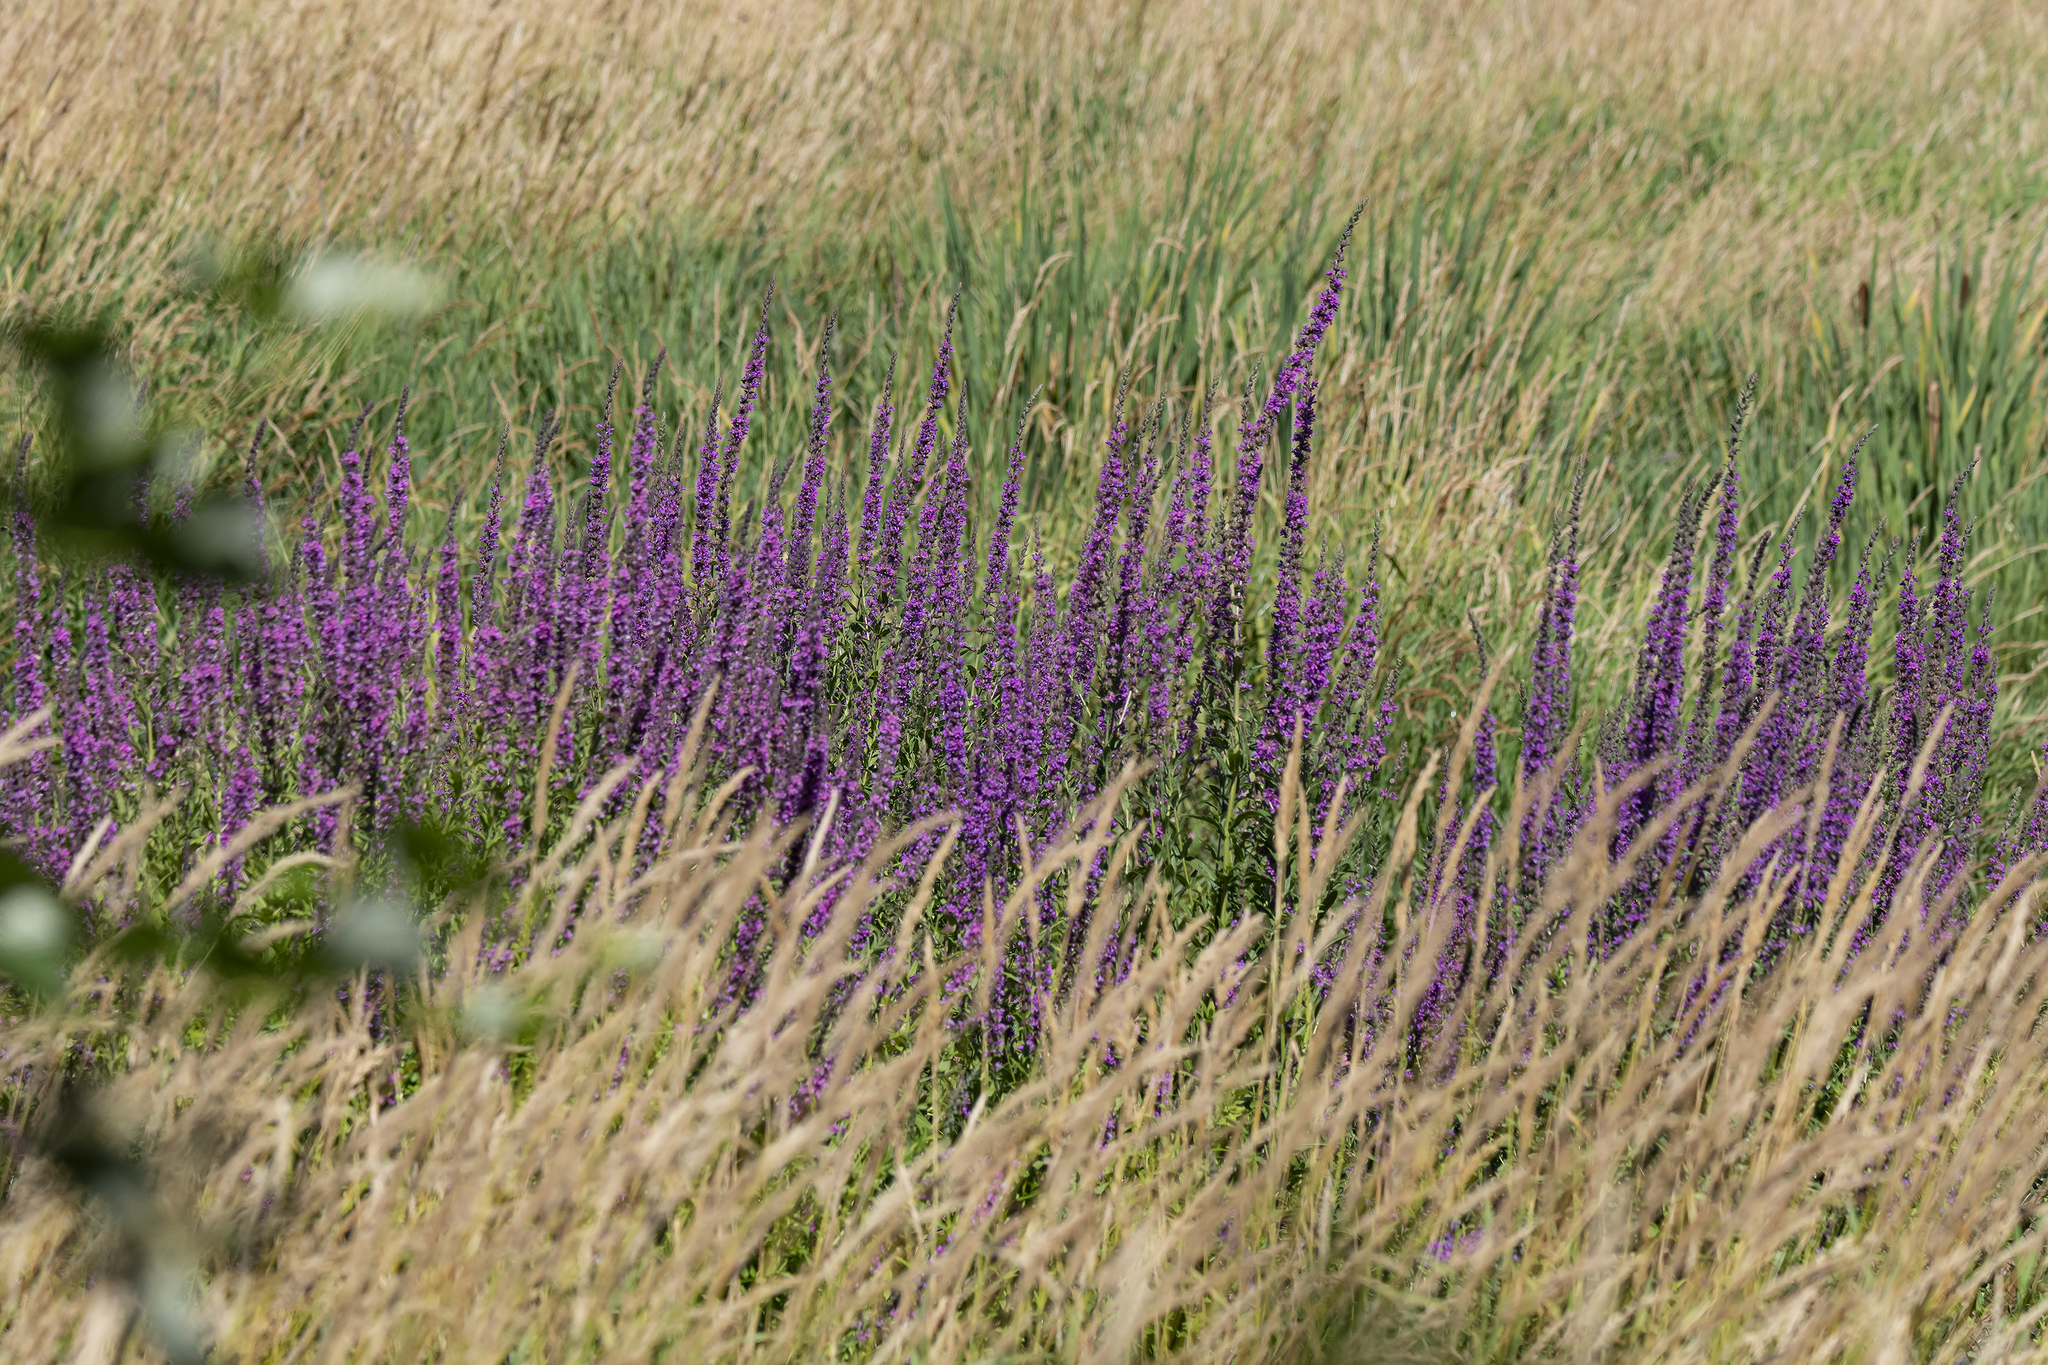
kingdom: Plantae
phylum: Tracheophyta
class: Magnoliopsida
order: Myrtales
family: Lythraceae
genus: Lythrum
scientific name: Lythrum salicaria
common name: Purple loosestrife
